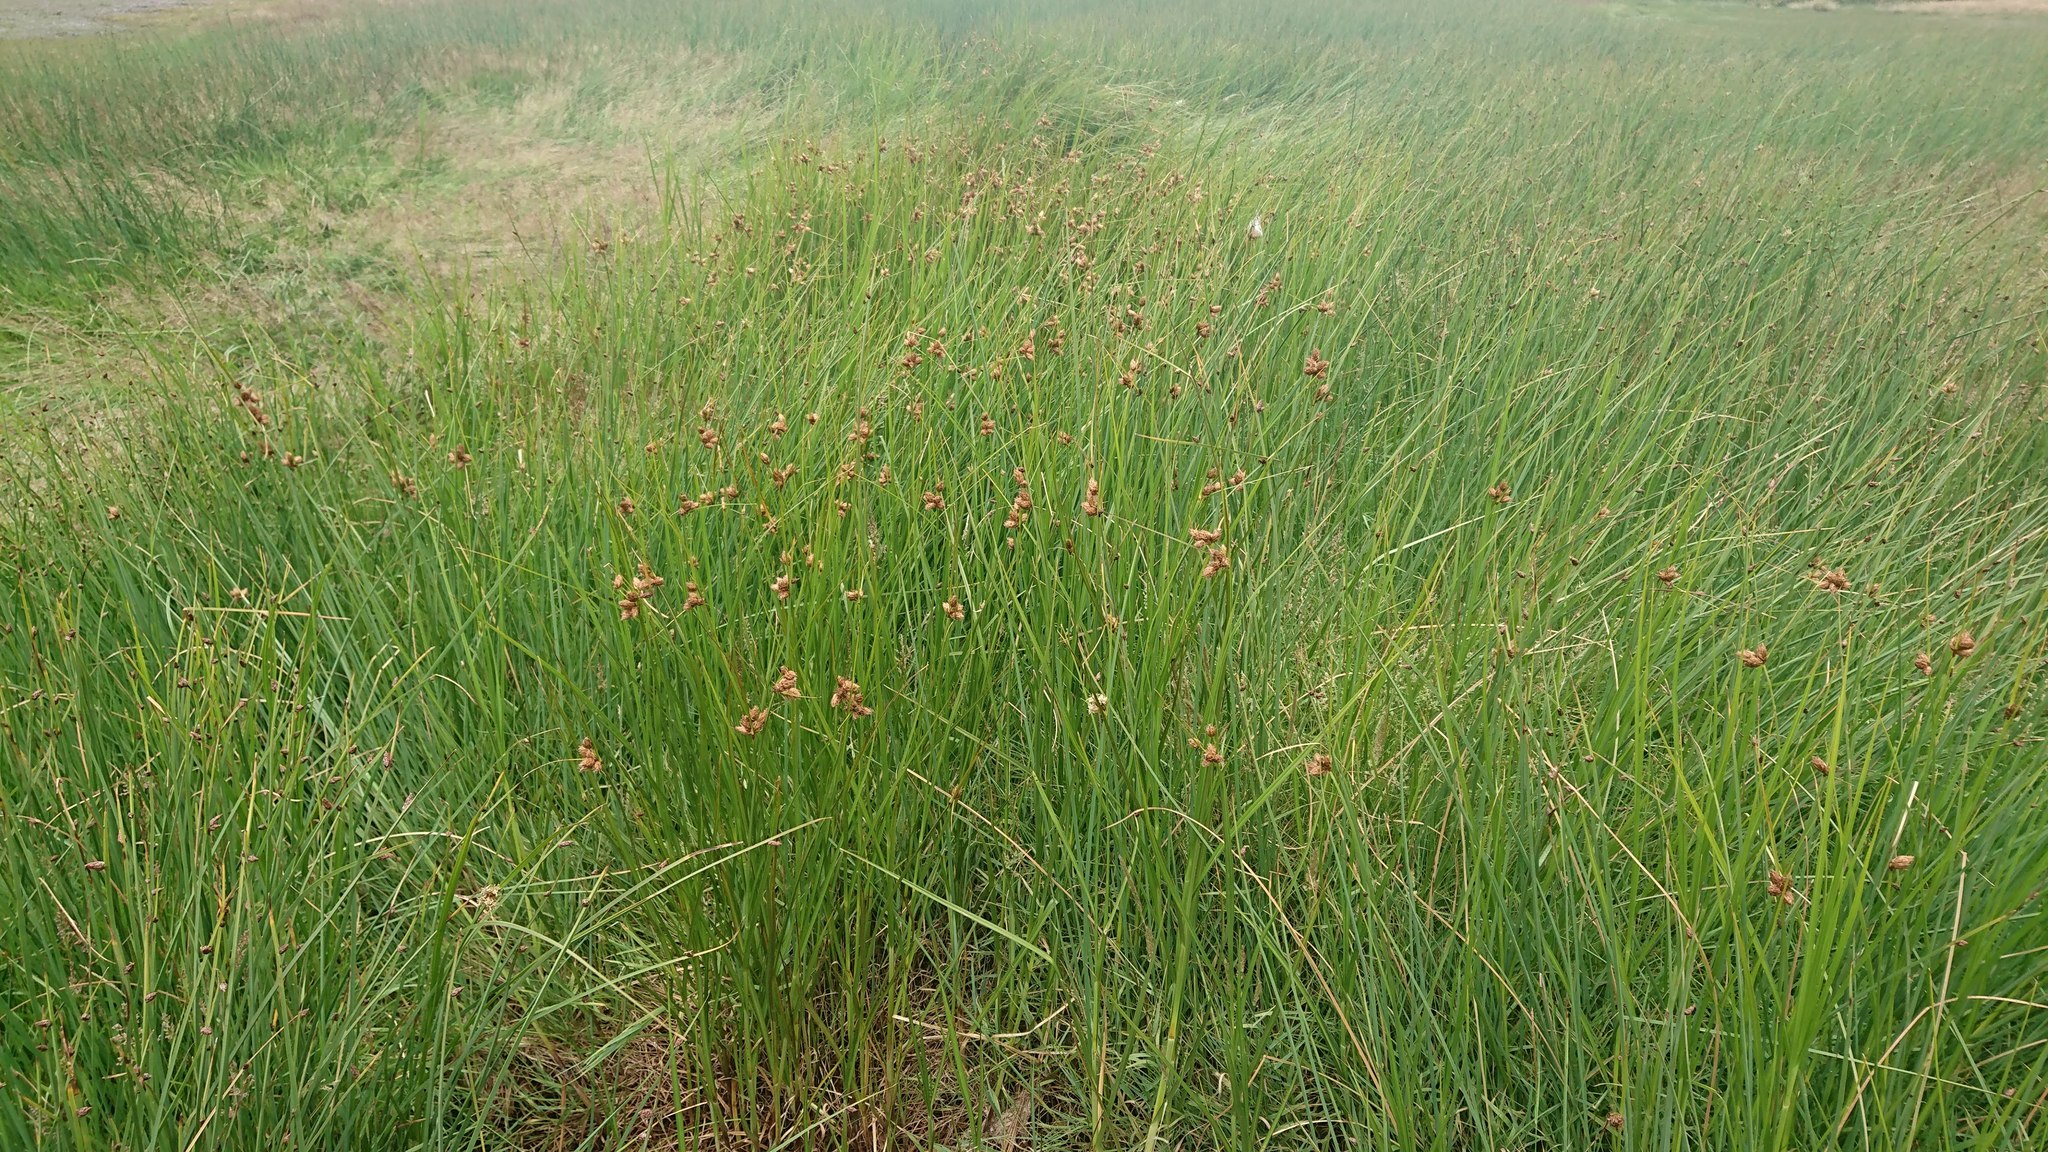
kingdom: Plantae
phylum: Tracheophyta
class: Liliopsida
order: Poales
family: Cyperaceae
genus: Bolboschoenus
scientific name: Bolboschoenus caldwellii
